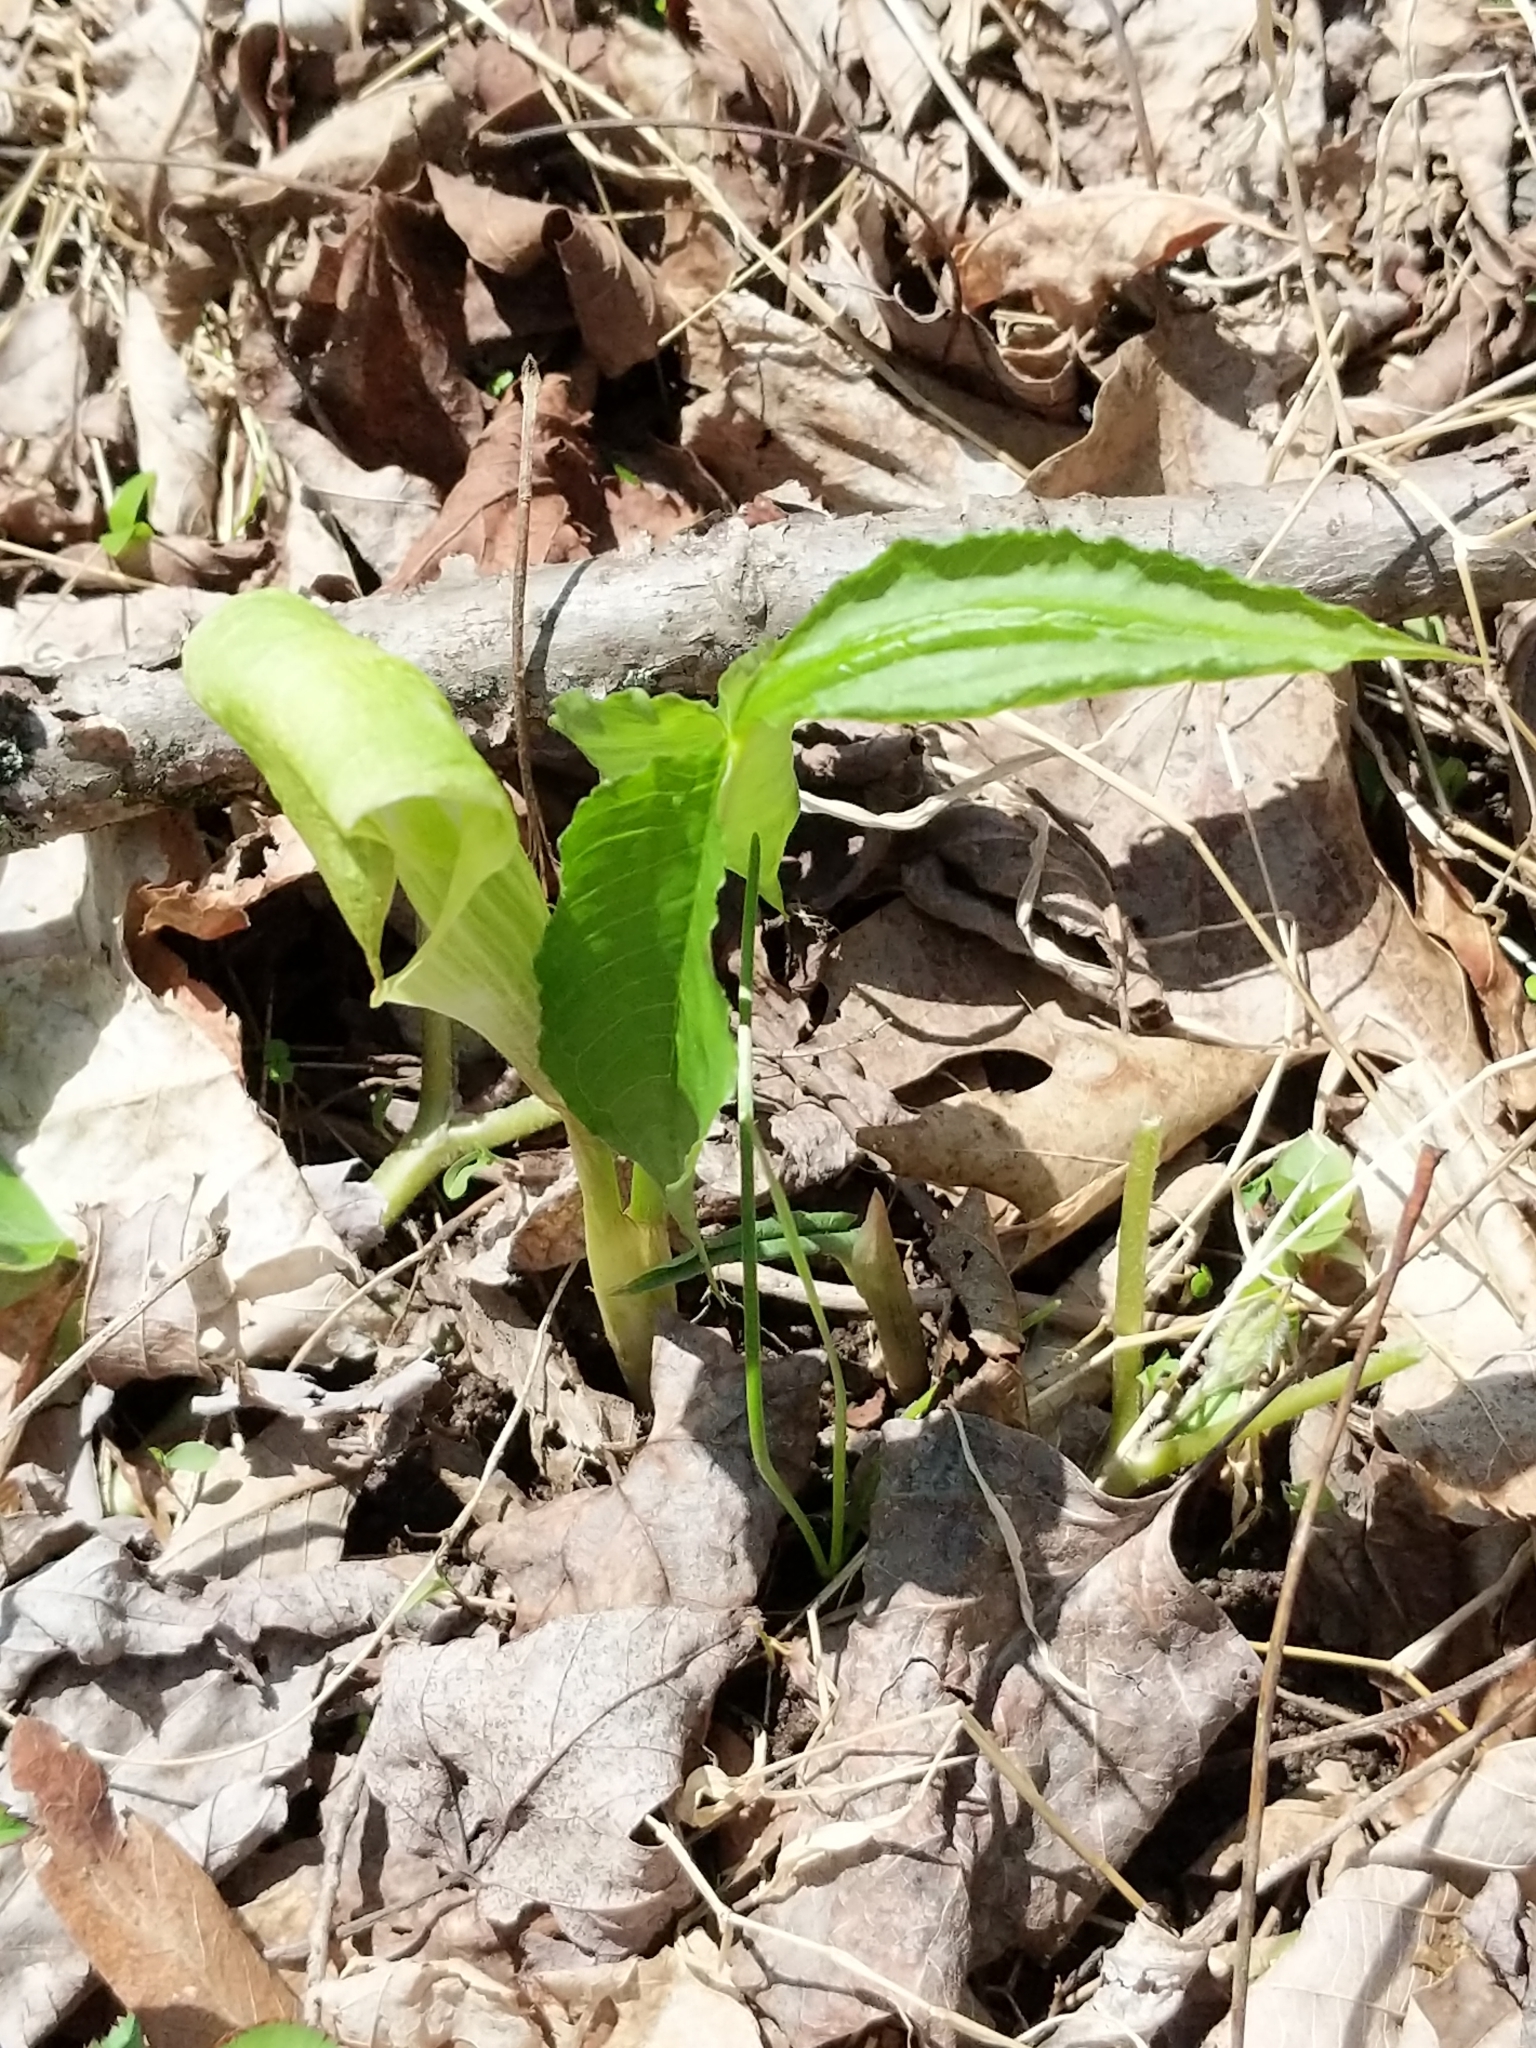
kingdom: Plantae
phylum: Tracheophyta
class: Liliopsida
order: Alismatales
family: Araceae
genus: Arisaema
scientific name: Arisaema triphyllum
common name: Jack-in-the-pulpit
